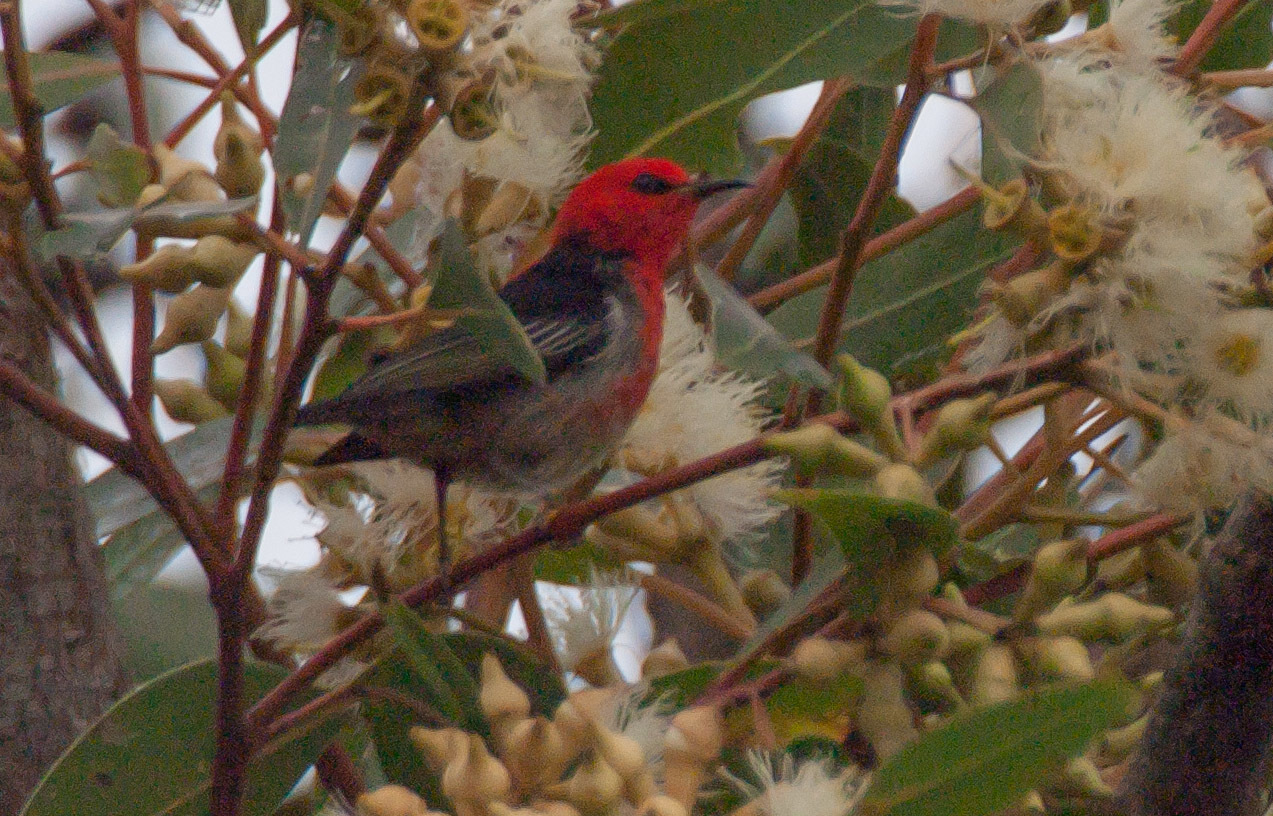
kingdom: Animalia
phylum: Chordata
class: Aves
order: Passeriformes
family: Meliphagidae
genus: Myzomela
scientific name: Myzomela sanguinolenta
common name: Scarlet myzomela
